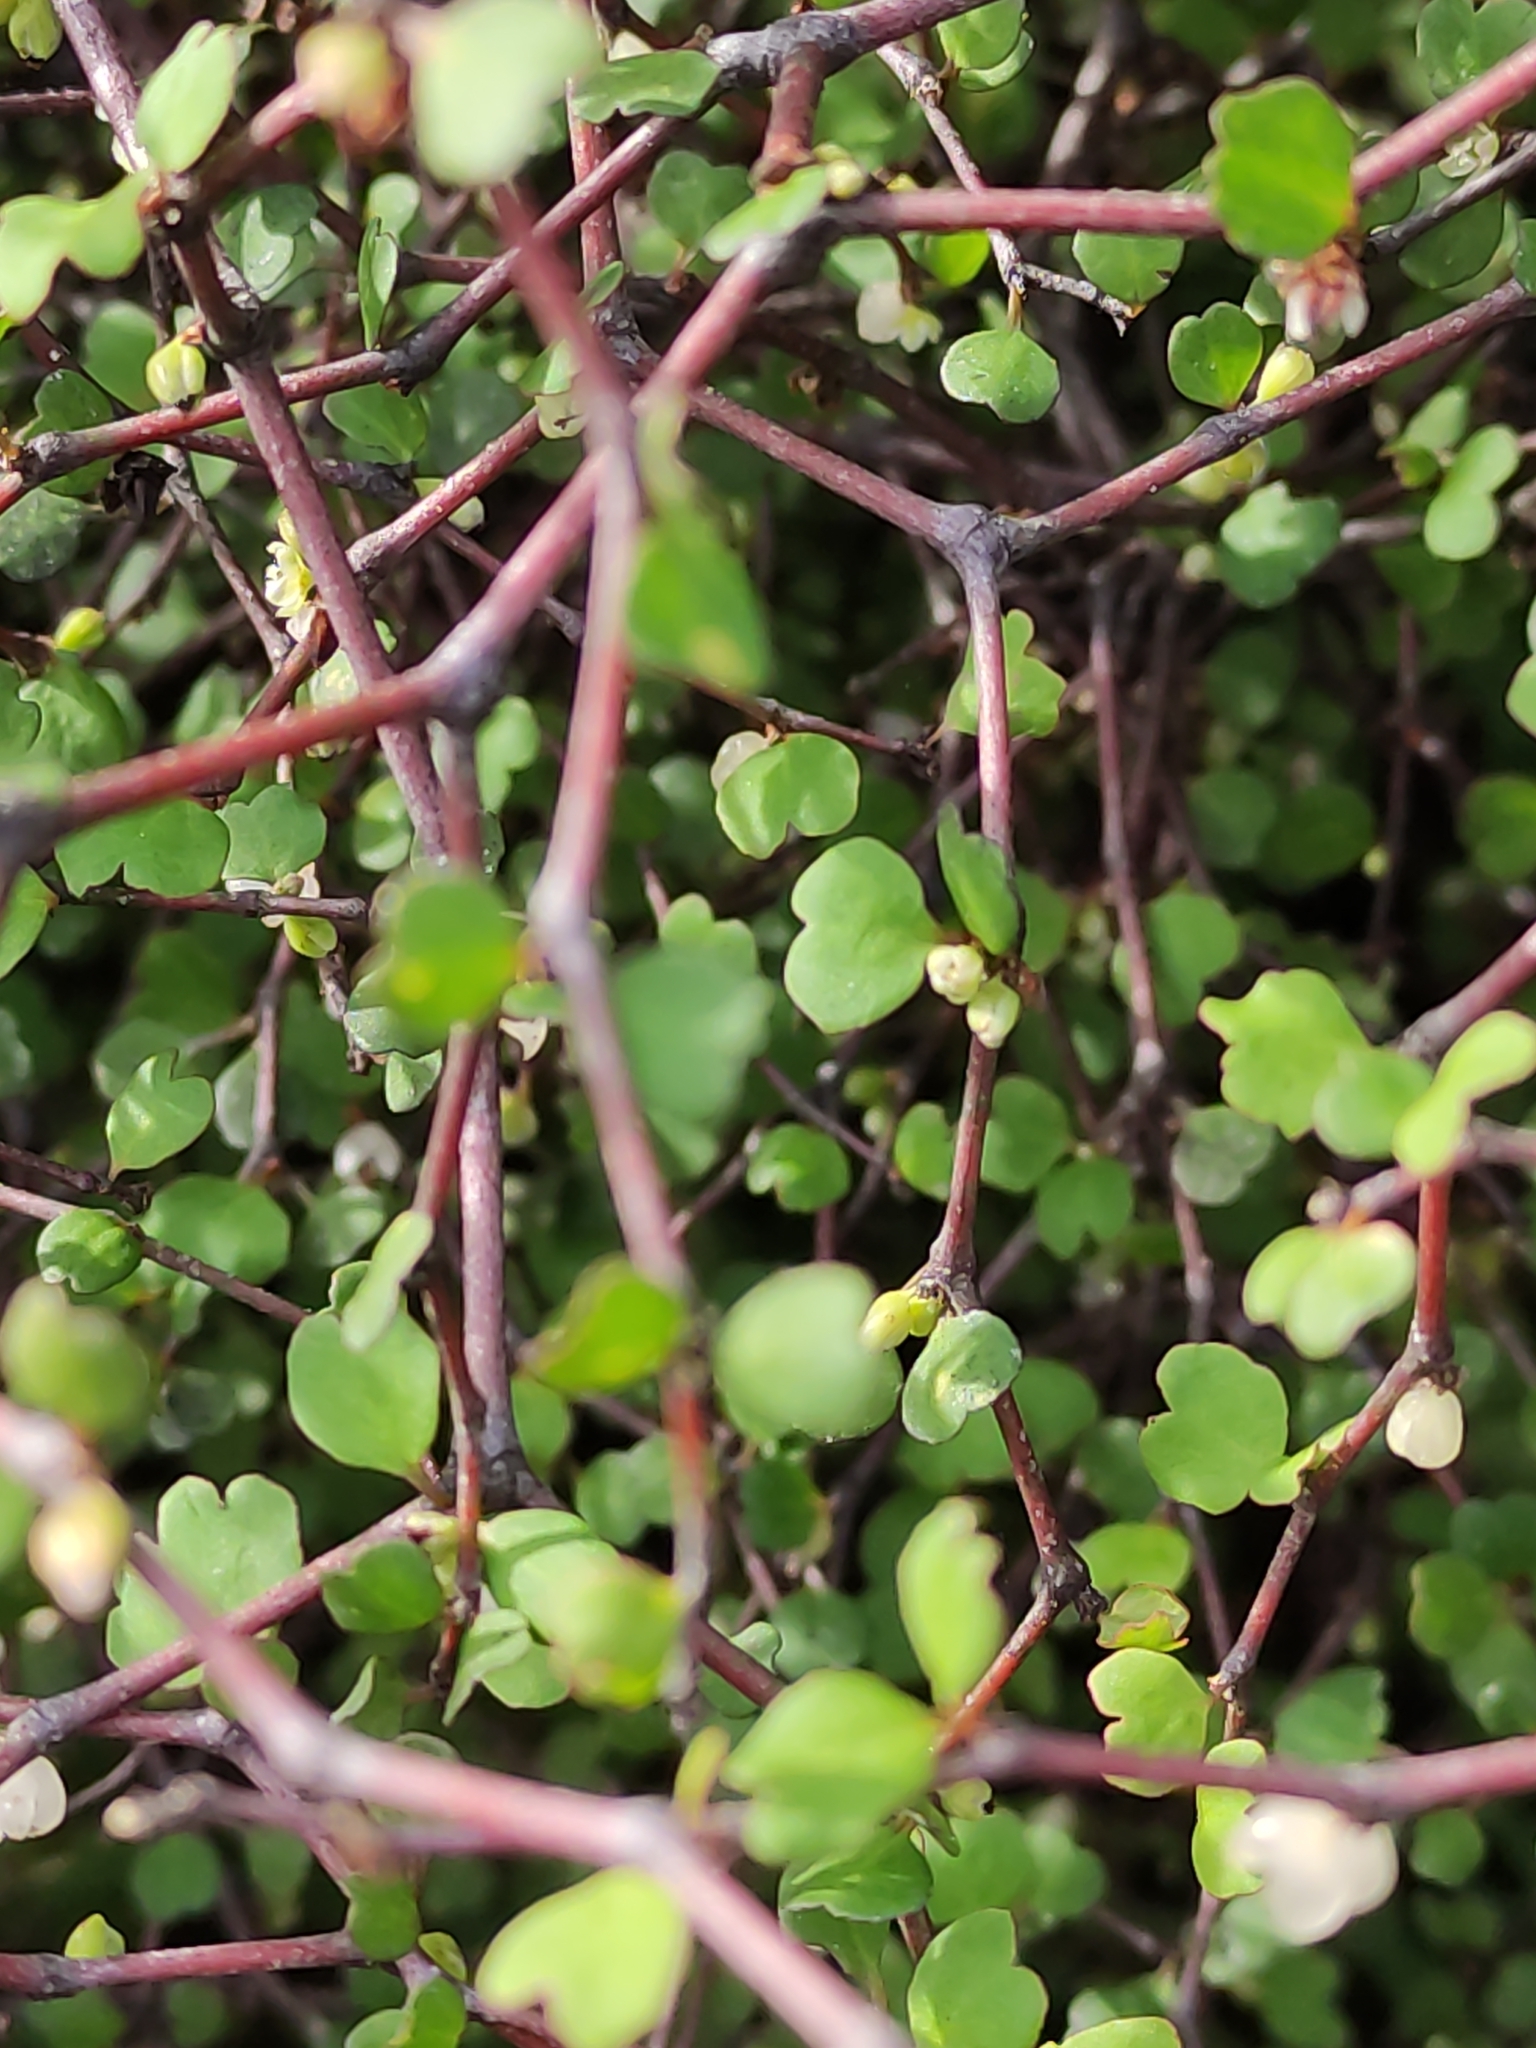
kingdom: Plantae
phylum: Tracheophyta
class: Magnoliopsida
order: Caryophyllales
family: Polygonaceae
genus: Muehlenbeckia
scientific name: Muehlenbeckia astonii
